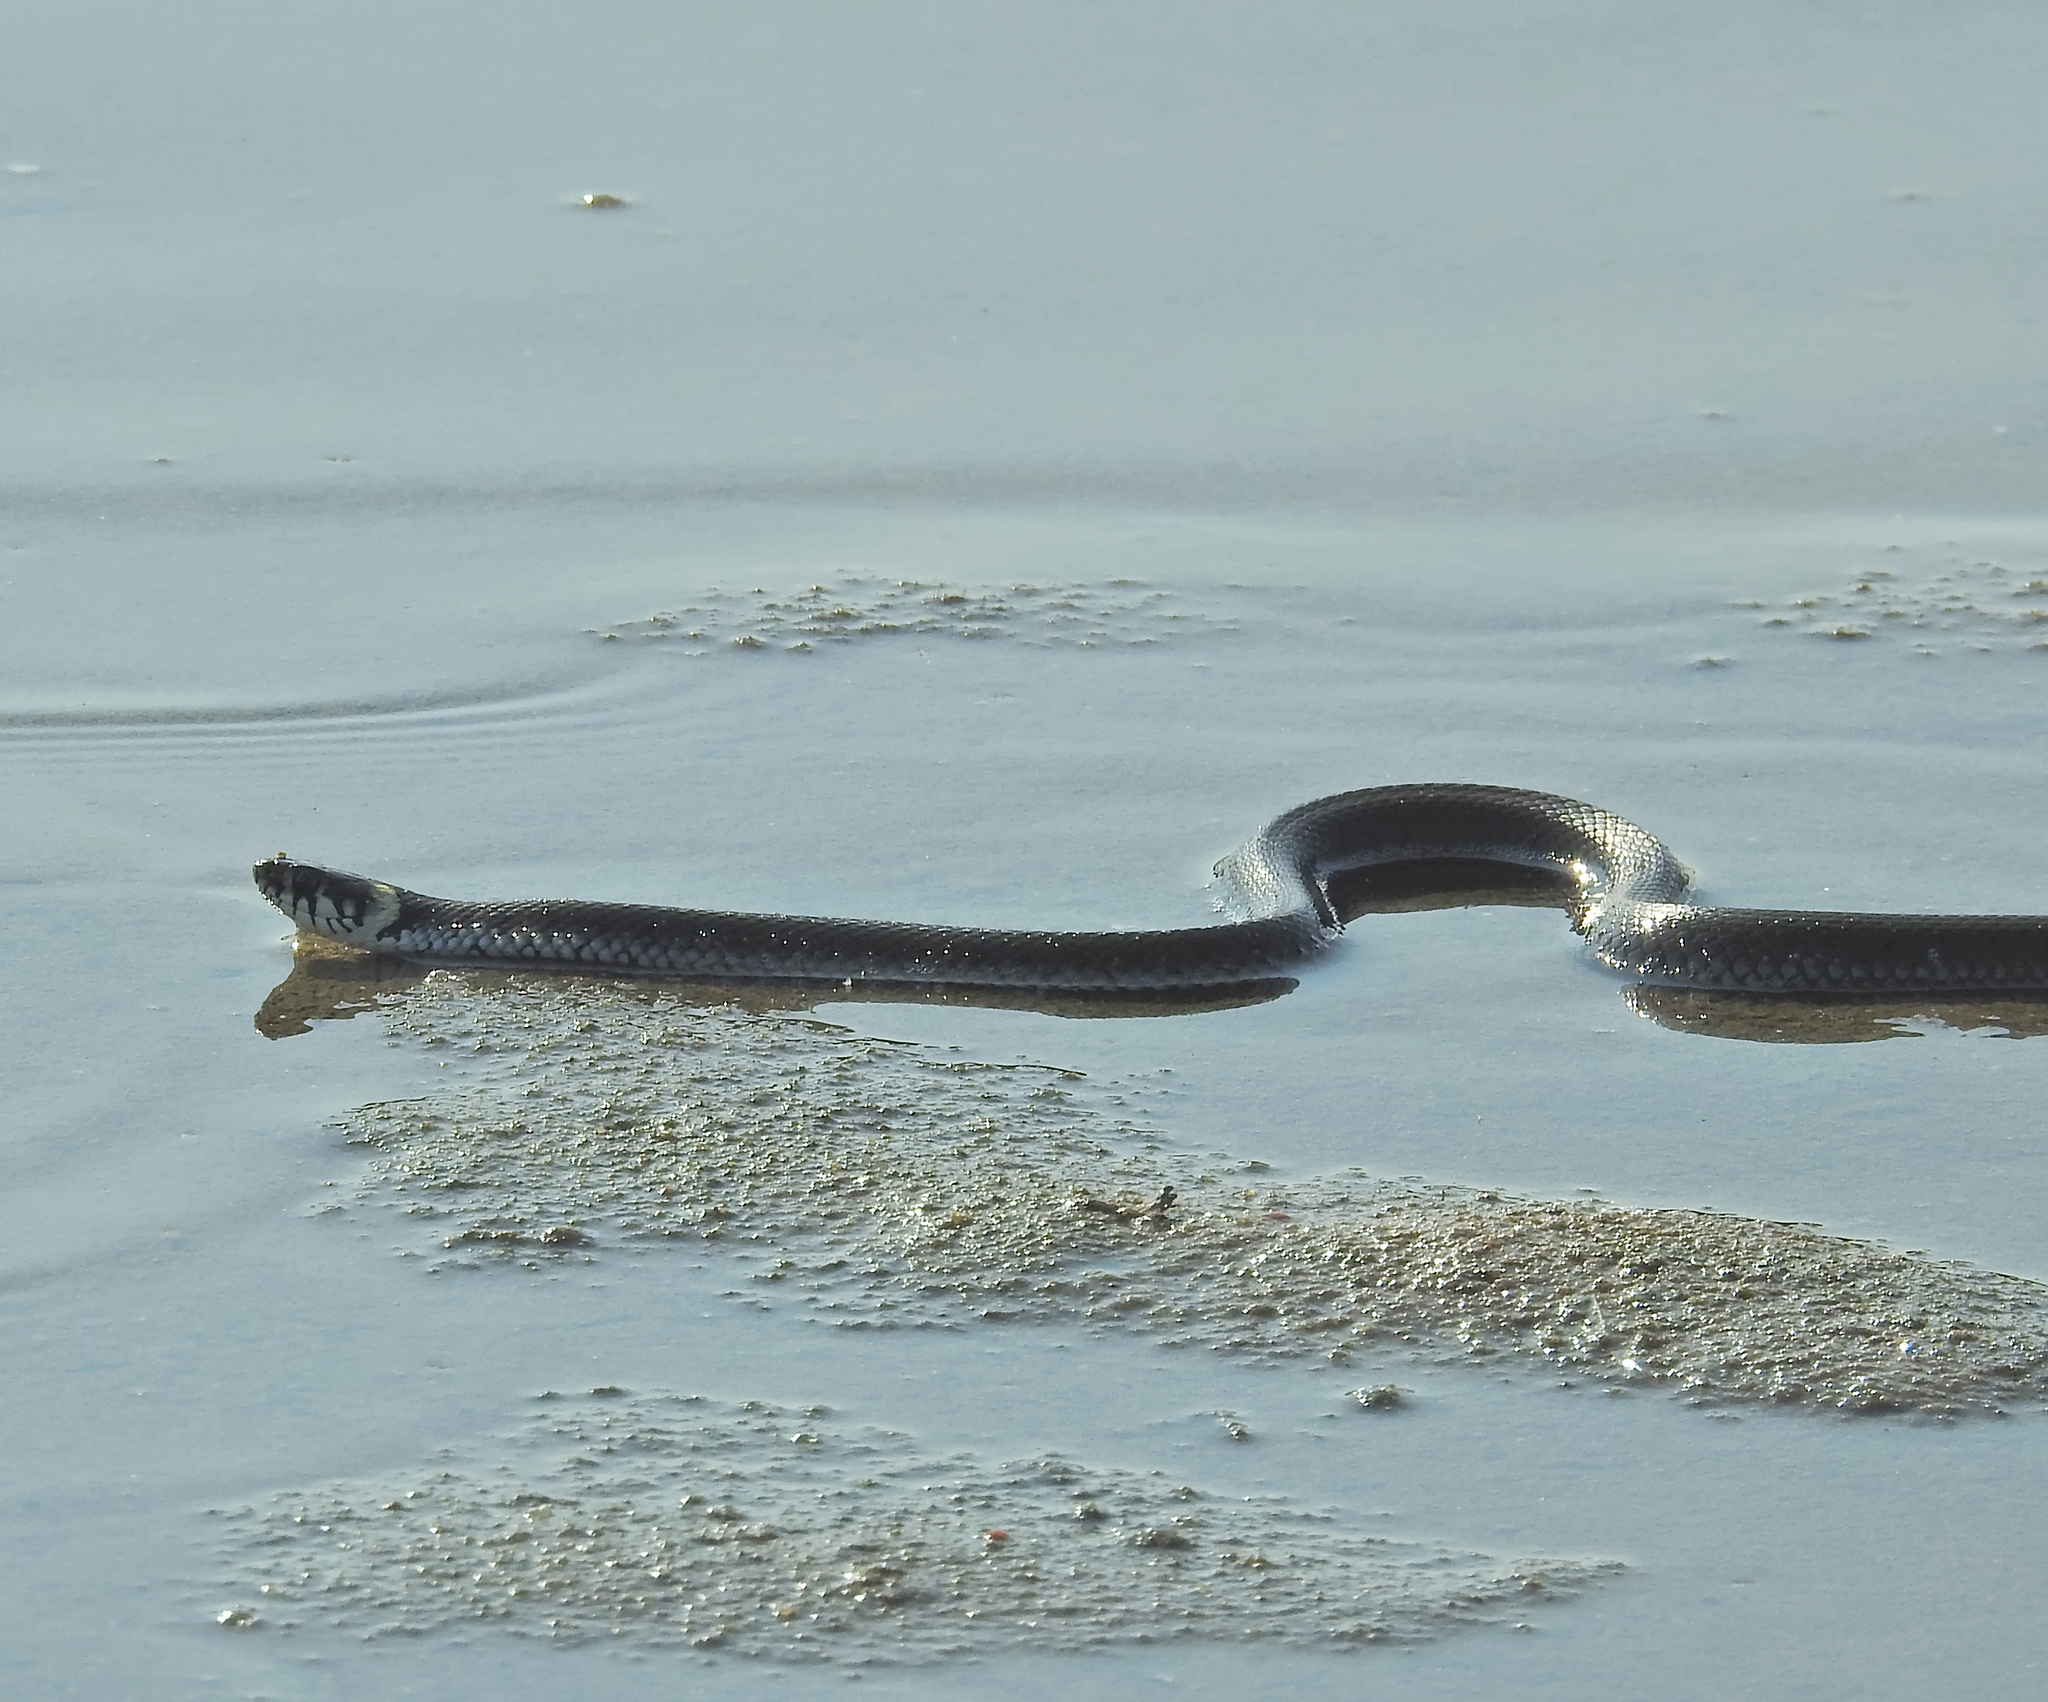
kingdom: Animalia
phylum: Chordata
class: Squamata
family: Colubridae
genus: Natrix
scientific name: Natrix natrix
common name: Grass snake
